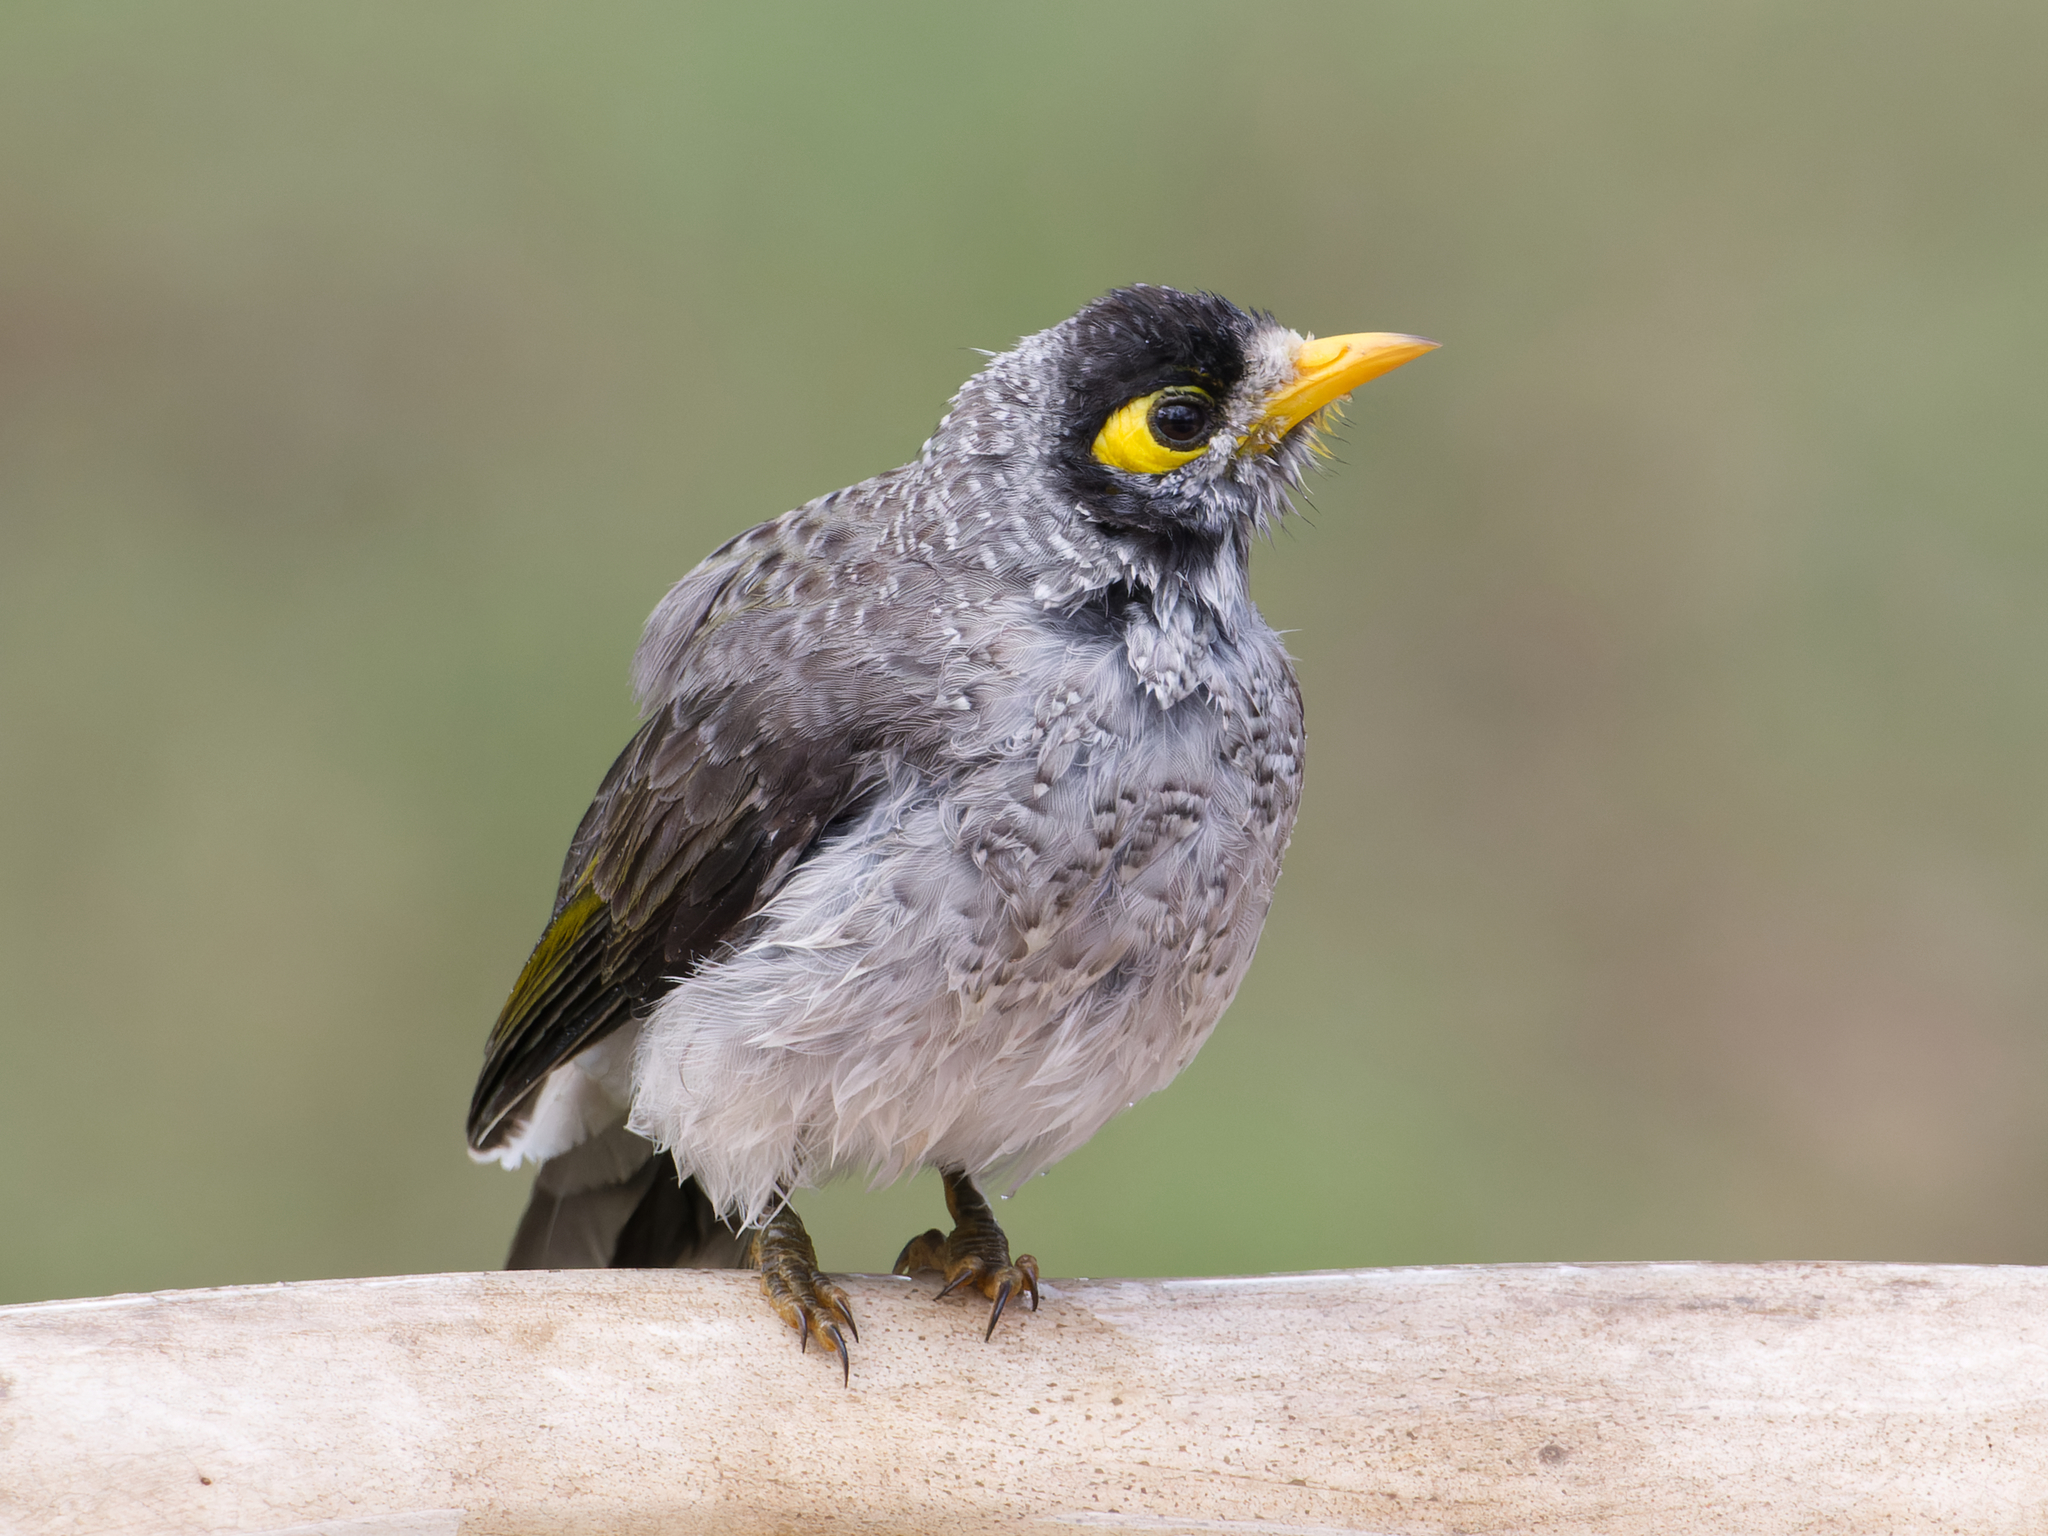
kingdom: Animalia
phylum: Chordata
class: Aves
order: Passeriformes
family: Meliphagidae
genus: Manorina
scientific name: Manorina melanocephala
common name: Noisy miner
